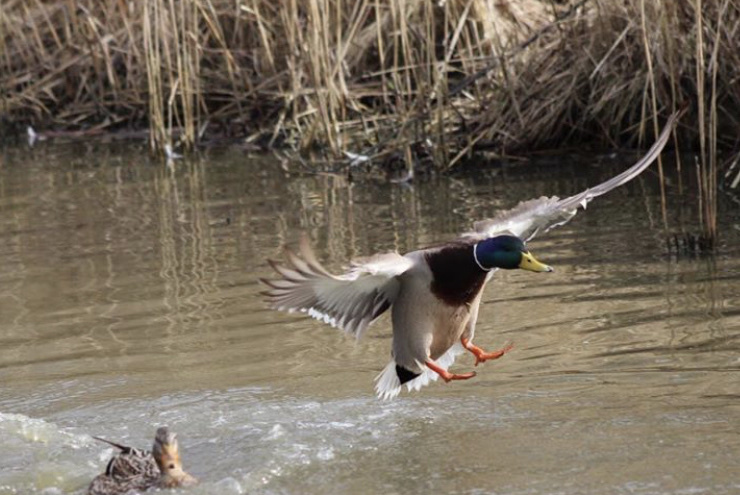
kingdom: Animalia
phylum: Chordata
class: Aves
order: Anseriformes
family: Anatidae
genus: Anas
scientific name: Anas platyrhynchos
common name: Mallard
